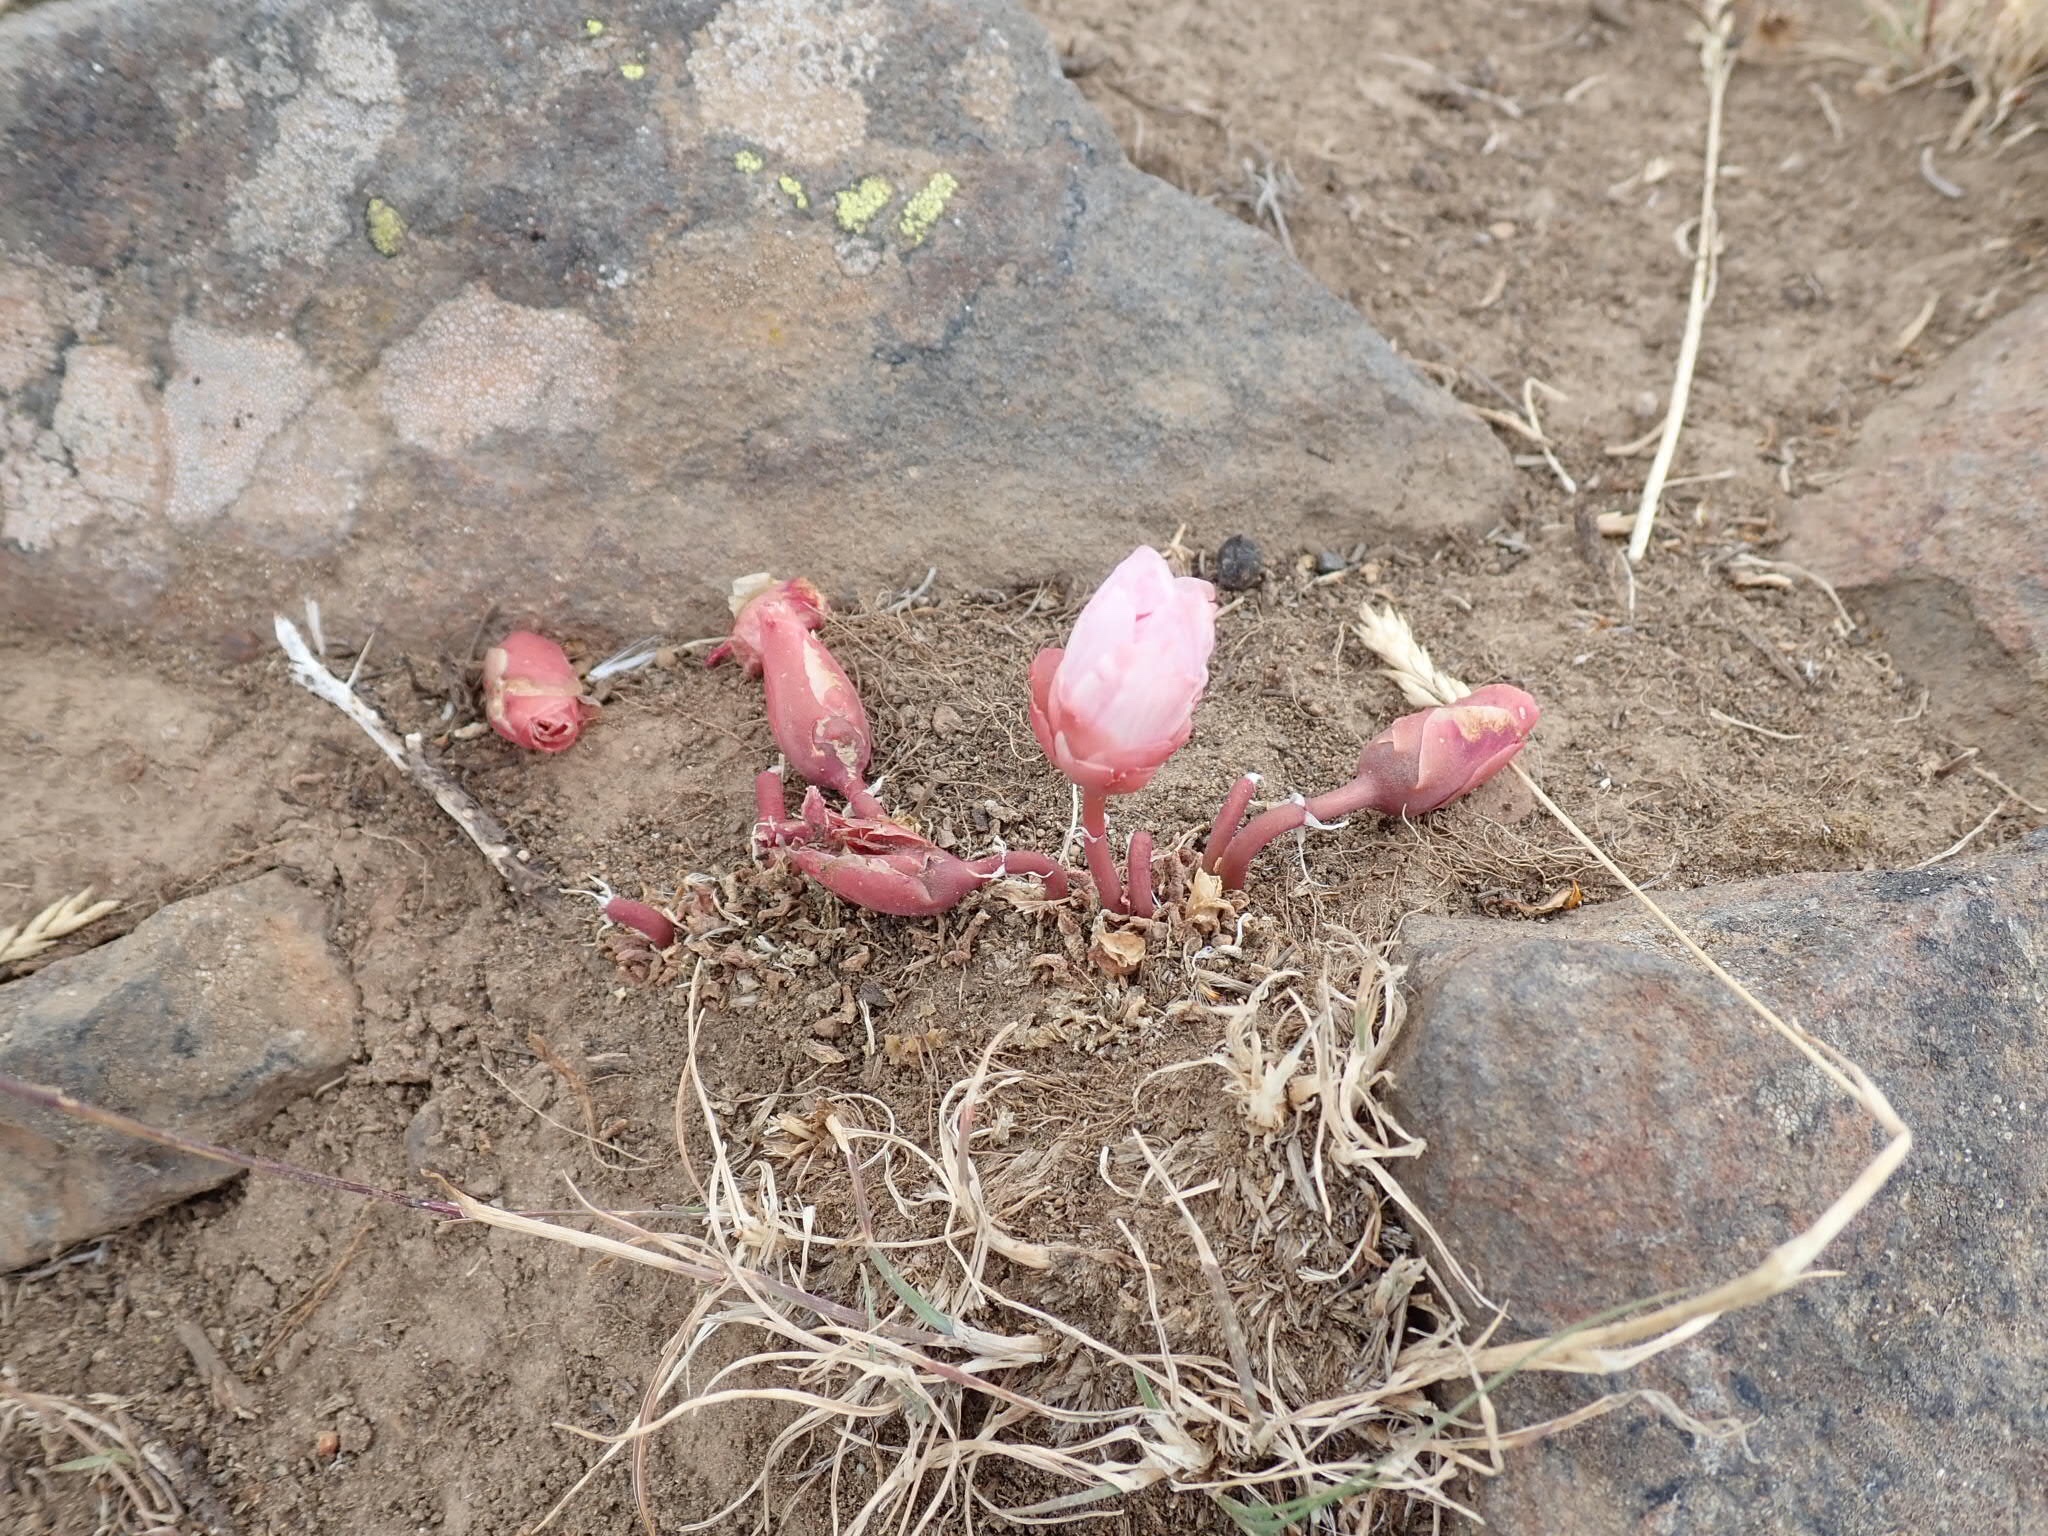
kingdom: Plantae
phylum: Tracheophyta
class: Magnoliopsida
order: Caryophyllales
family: Montiaceae
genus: Lewisia
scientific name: Lewisia rediviva
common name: Bitter-root
